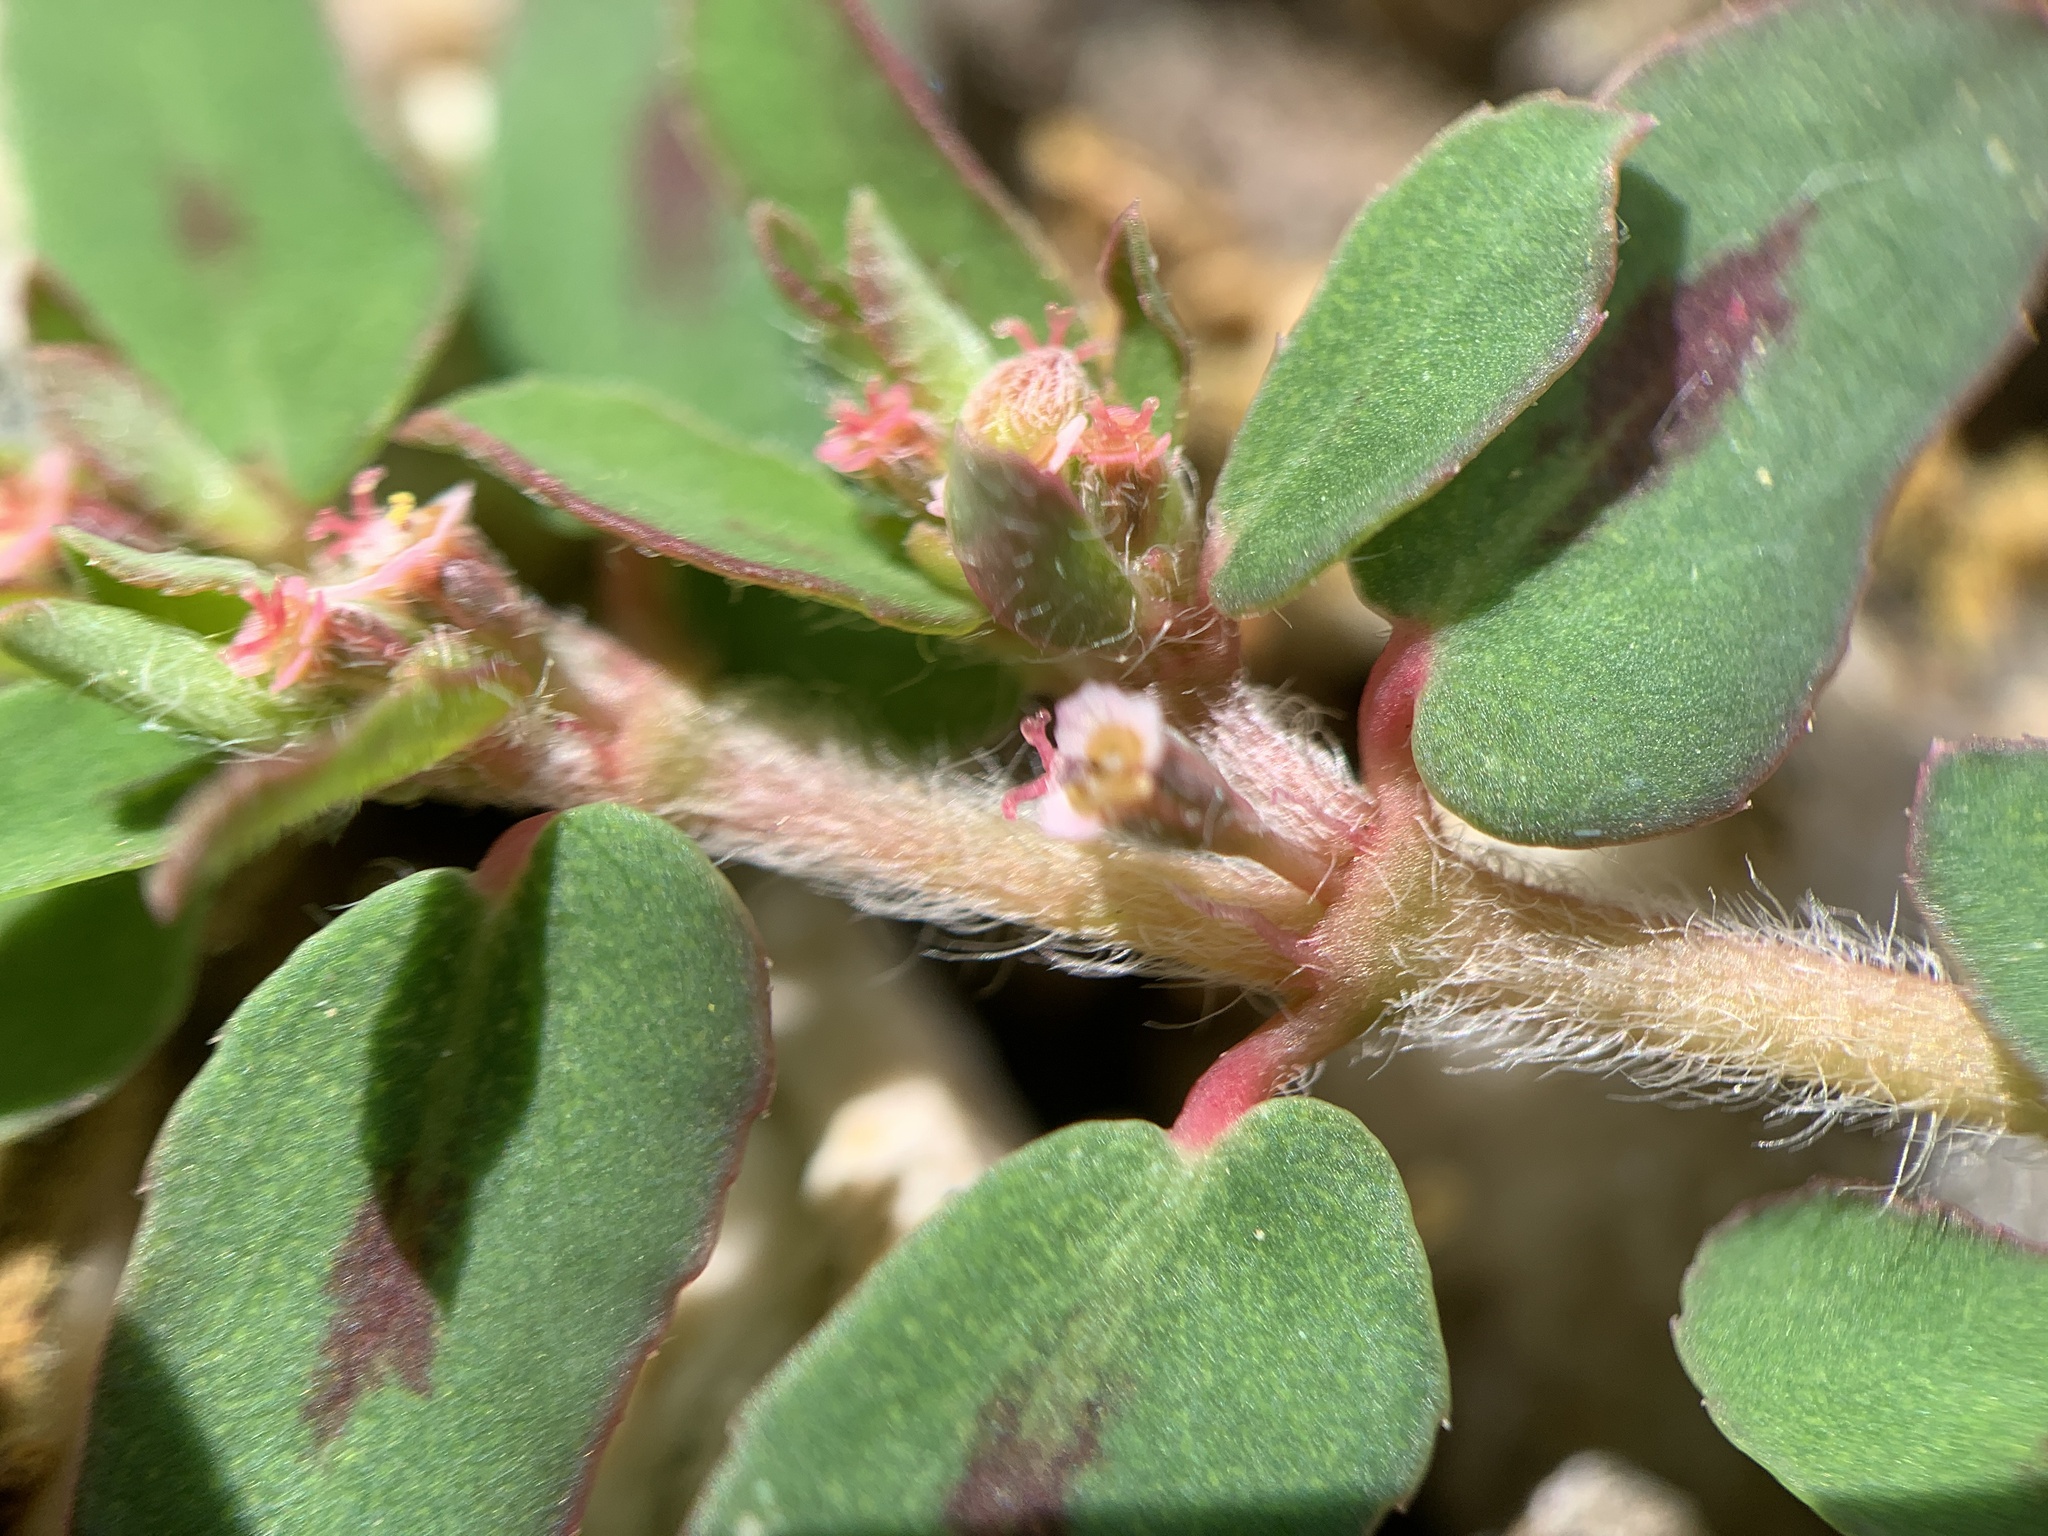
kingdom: Plantae
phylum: Tracheophyta
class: Magnoliopsida
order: Malpighiales
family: Euphorbiaceae
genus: Euphorbia
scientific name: Euphorbia maculata
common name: Spotted spurge
